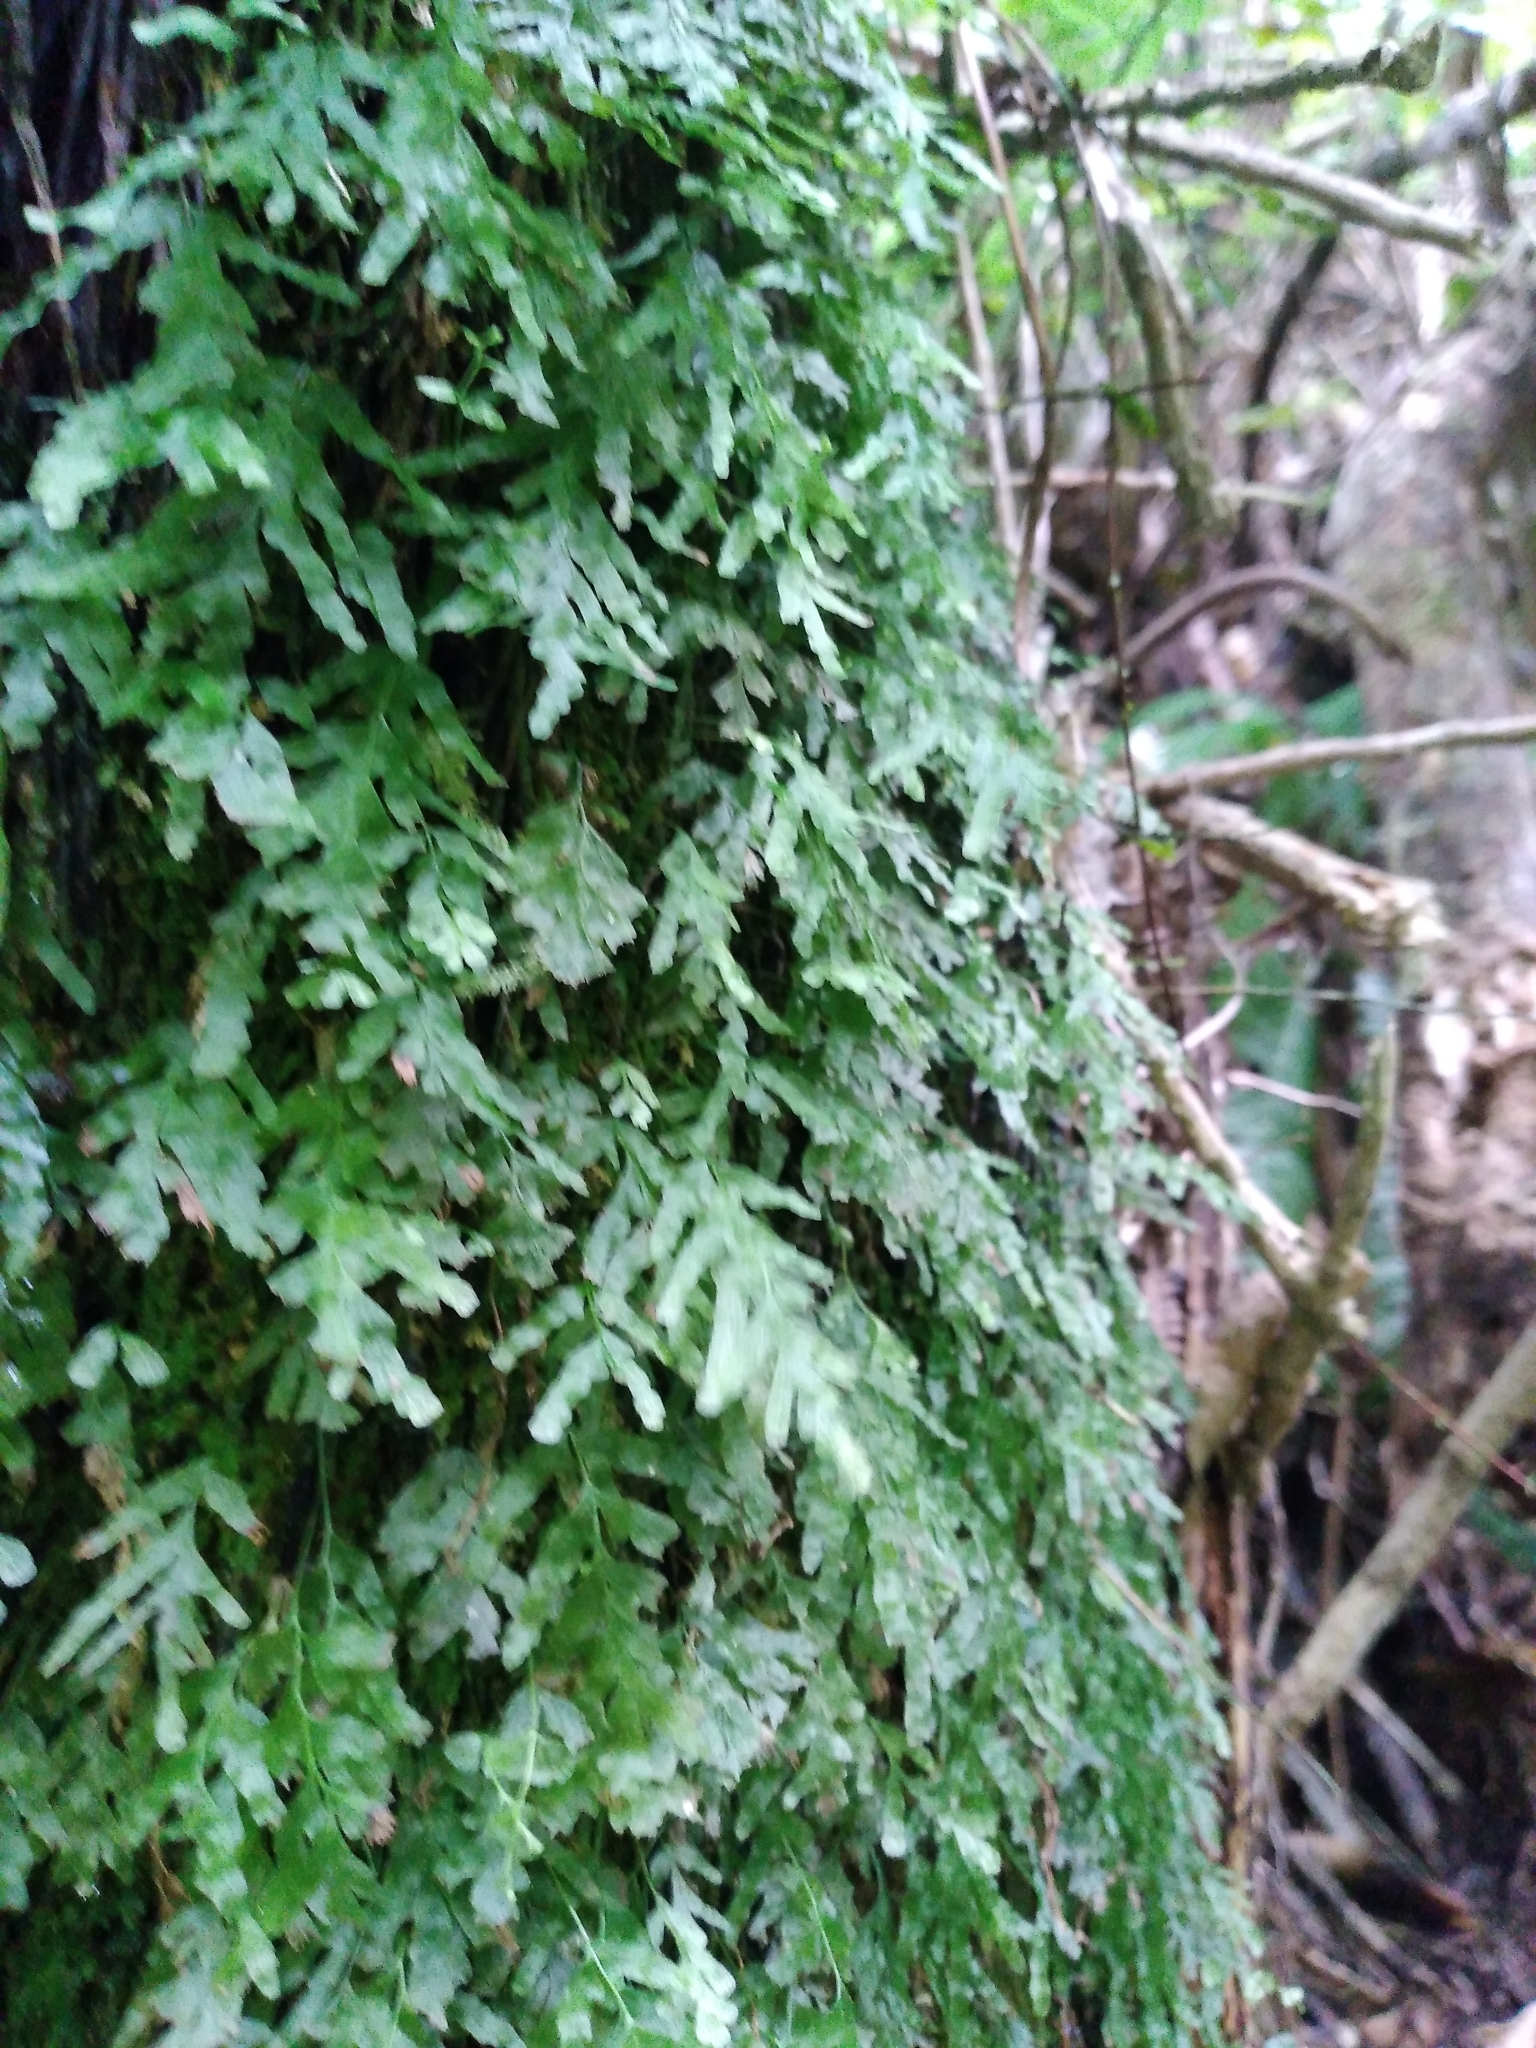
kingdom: Plantae
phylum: Tracheophyta
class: Polypodiopsida
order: Hymenophyllales
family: Hymenophyllaceae
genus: Polyphlebium
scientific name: Polyphlebium venosum
